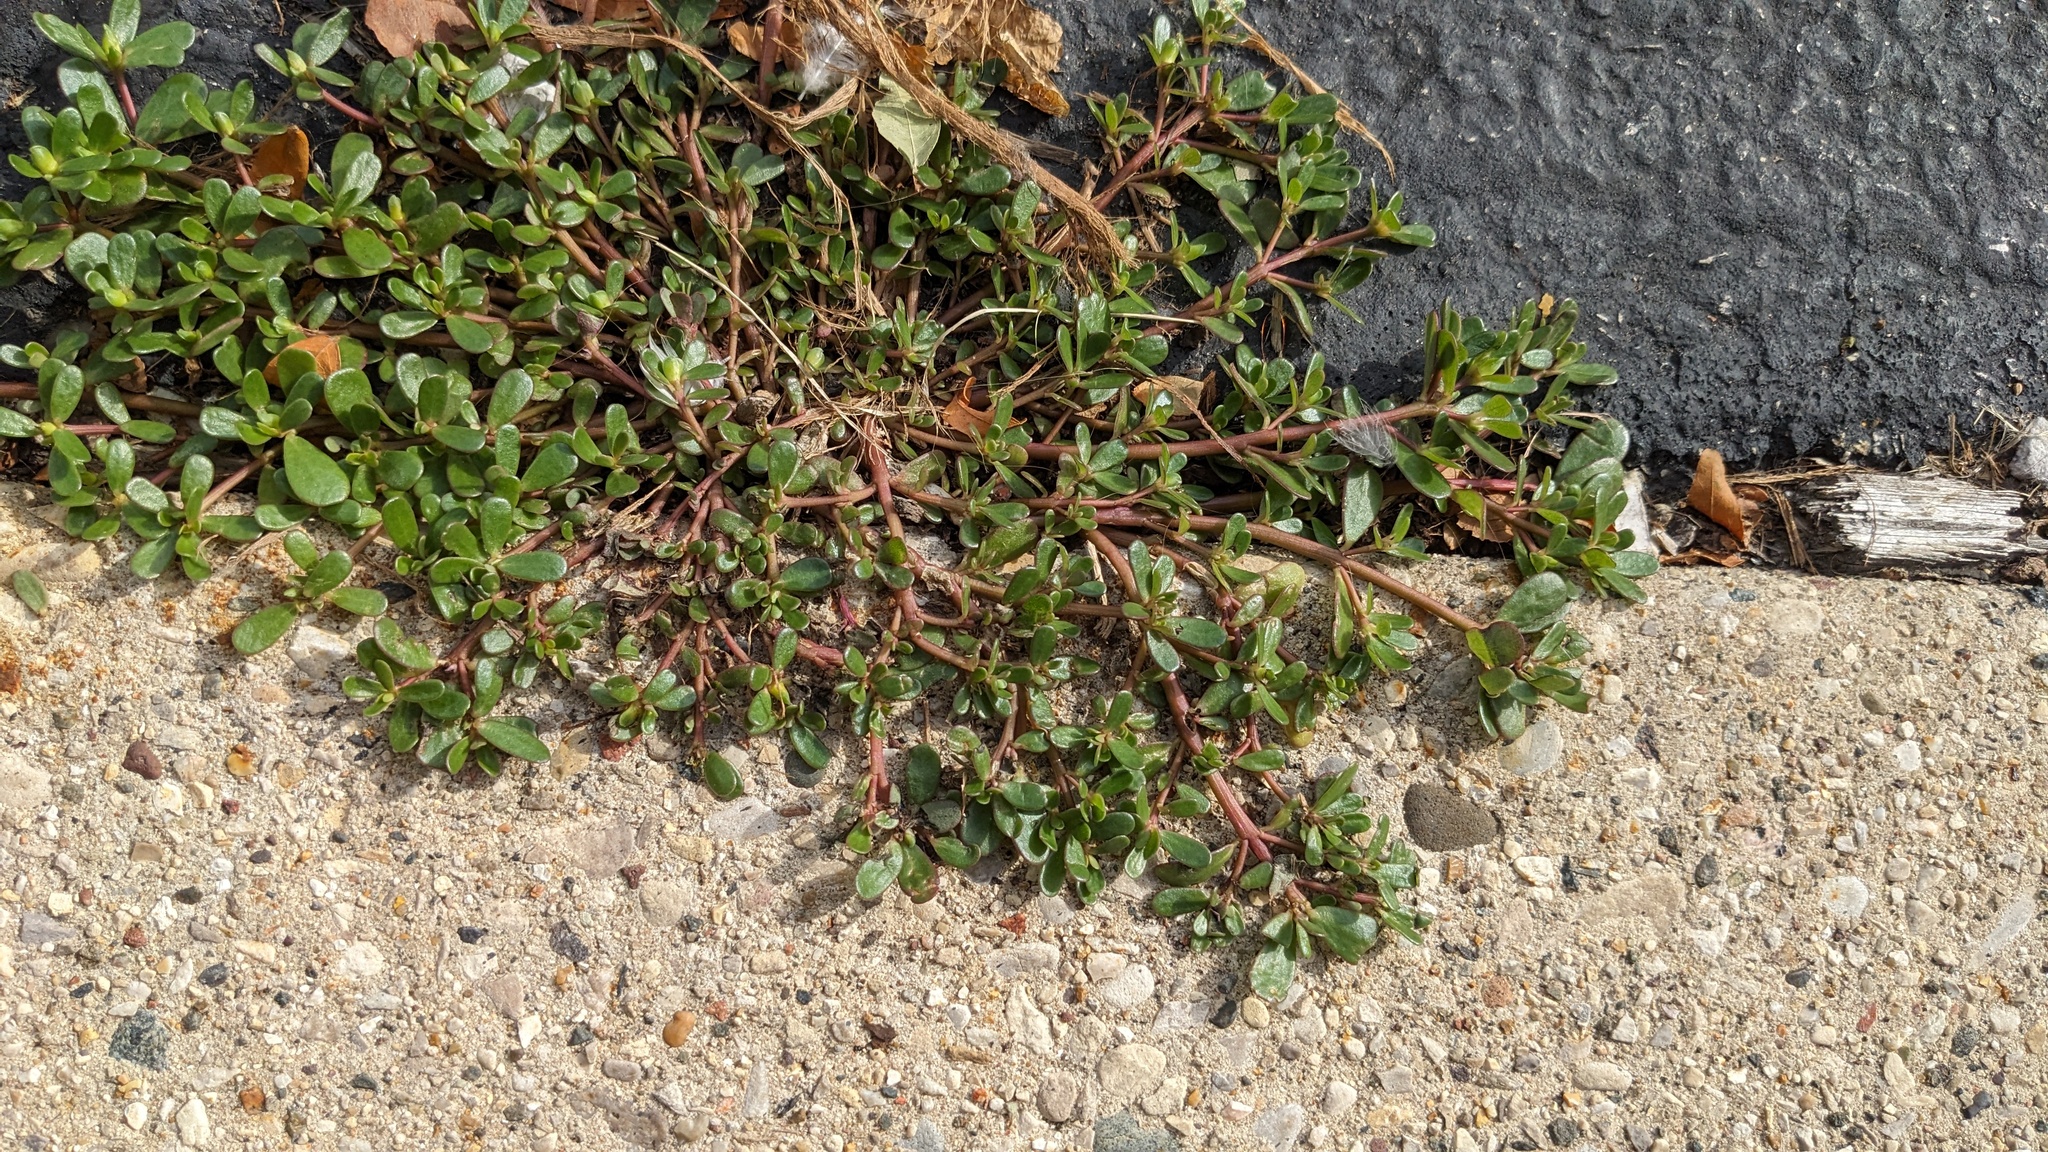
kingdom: Plantae
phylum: Tracheophyta
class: Magnoliopsida
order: Caryophyllales
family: Portulacaceae
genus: Portulaca
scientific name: Portulaca oleracea
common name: Common purslane
